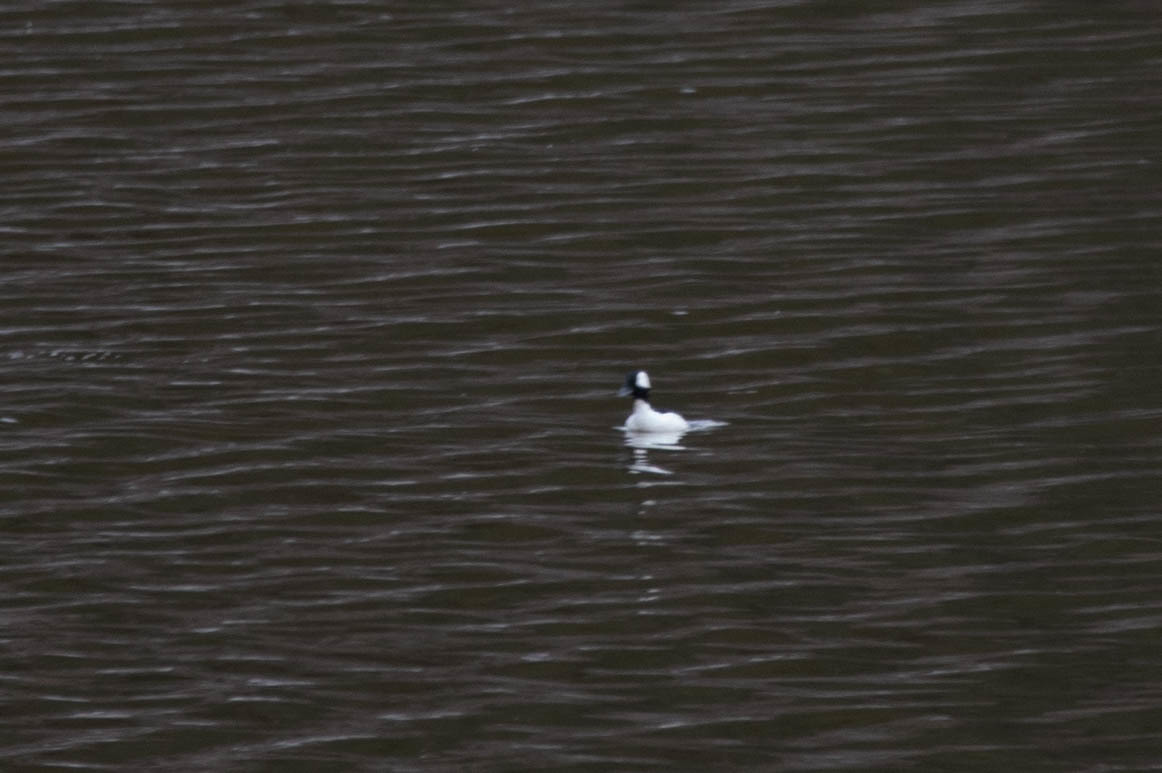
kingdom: Animalia
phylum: Chordata
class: Aves
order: Anseriformes
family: Anatidae
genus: Bucephala
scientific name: Bucephala albeola
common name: Bufflehead
